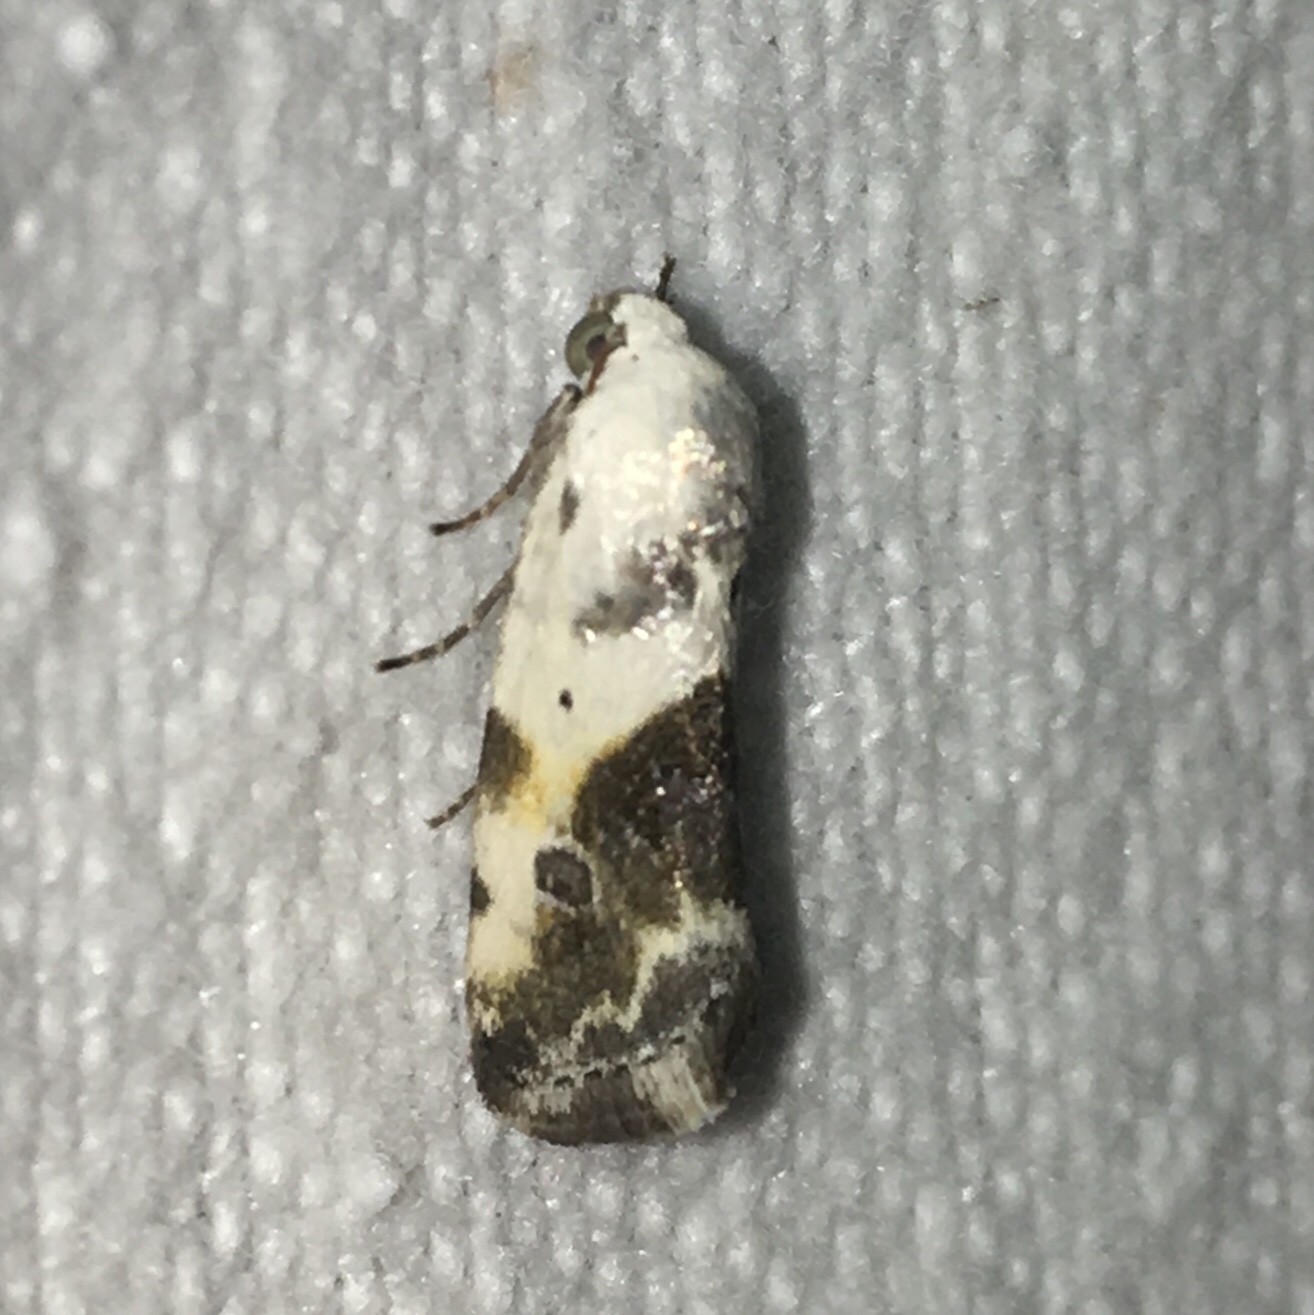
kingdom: Animalia
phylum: Arthropoda
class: Insecta
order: Lepidoptera
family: Noctuidae
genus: Acontia
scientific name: Acontia candefacta
